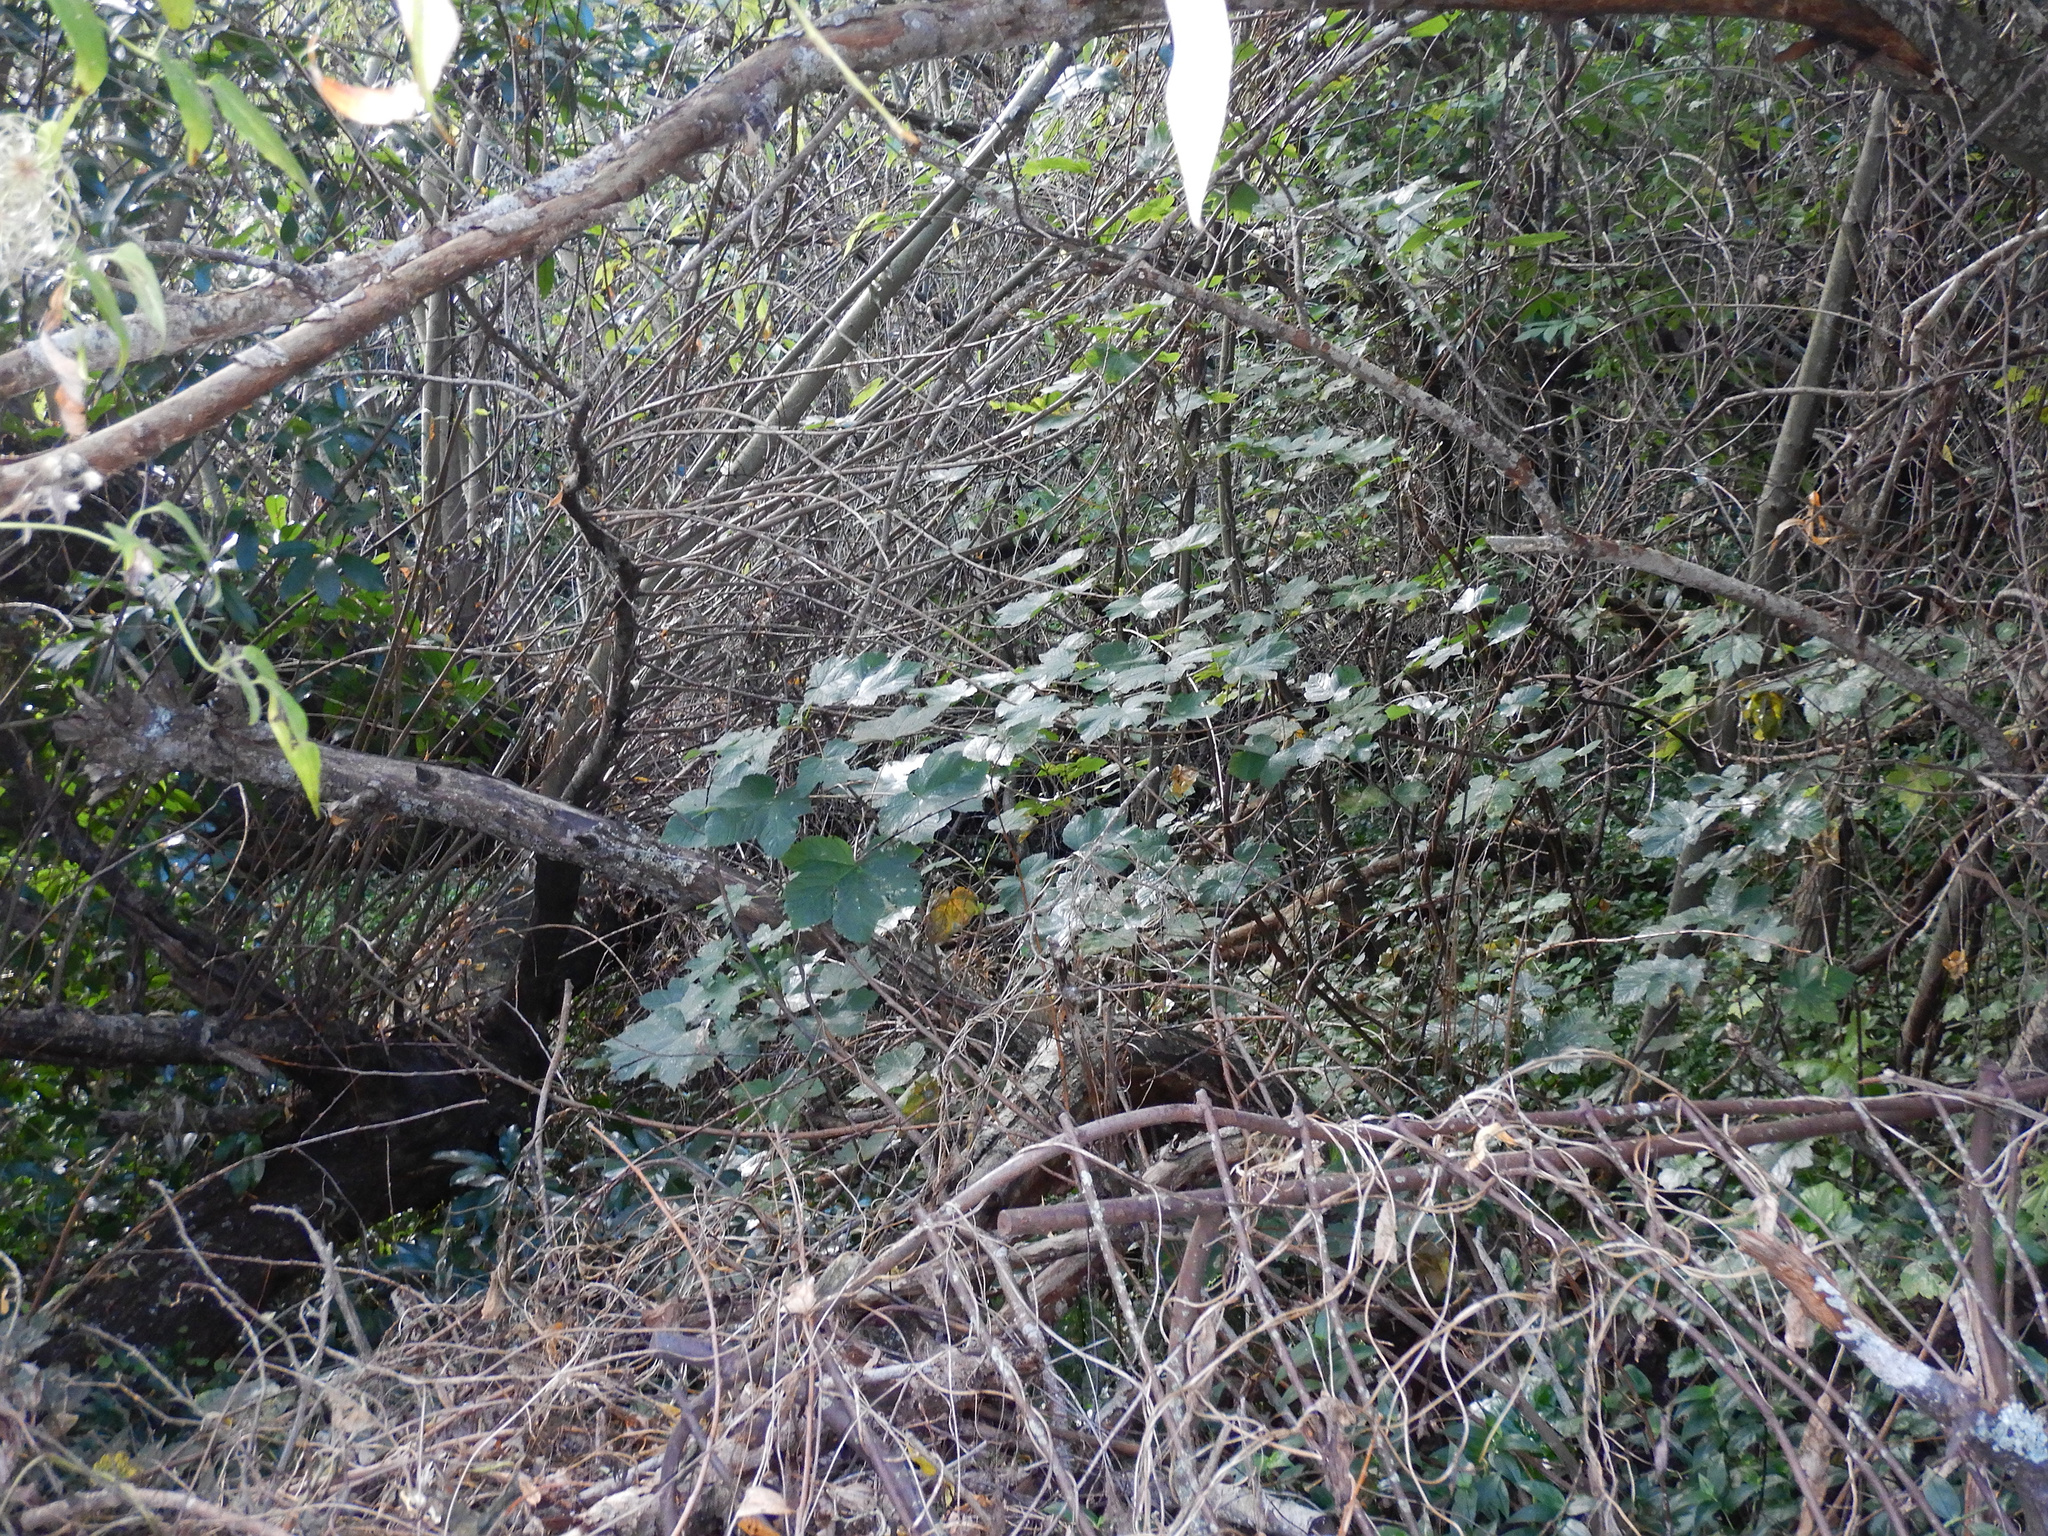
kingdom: Plantae
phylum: Tracheophyta
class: Magnoliopsida
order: Sapindales
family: Sapindaceae
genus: Acer
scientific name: Acer pseudoplatanus
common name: Sycamore
